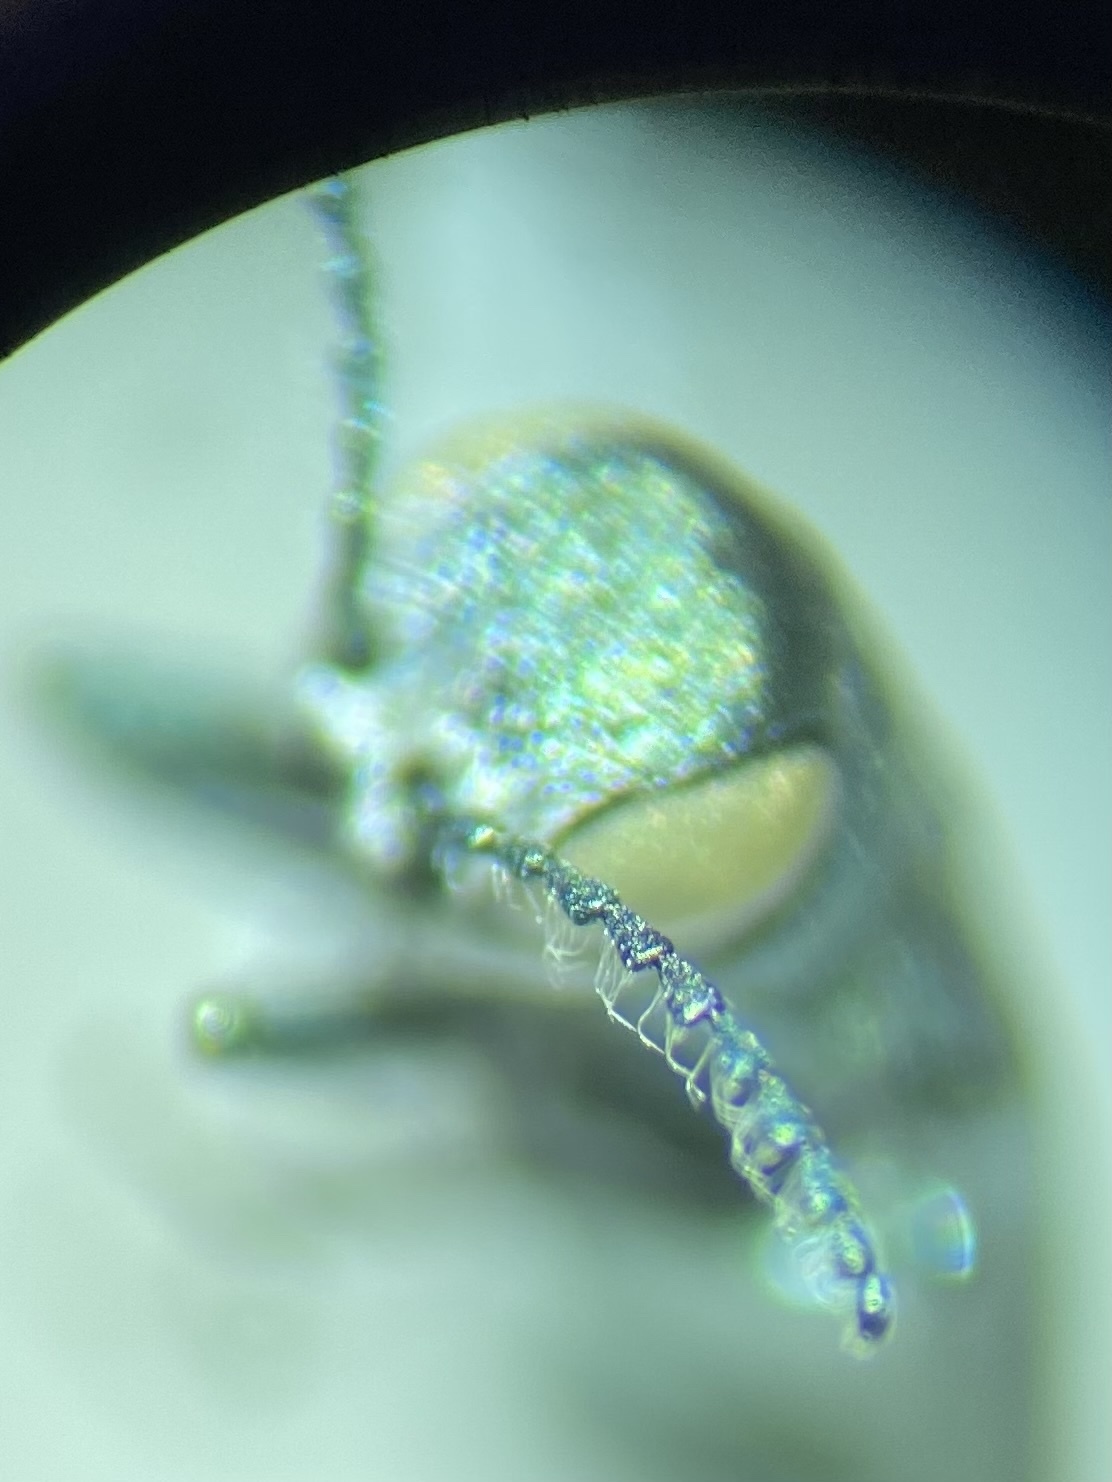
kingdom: Animalia
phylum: Arthropoda
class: Insecta
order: Coleoptera
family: Buprestidae
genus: Agrilus
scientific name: Agrilus crinicornis
